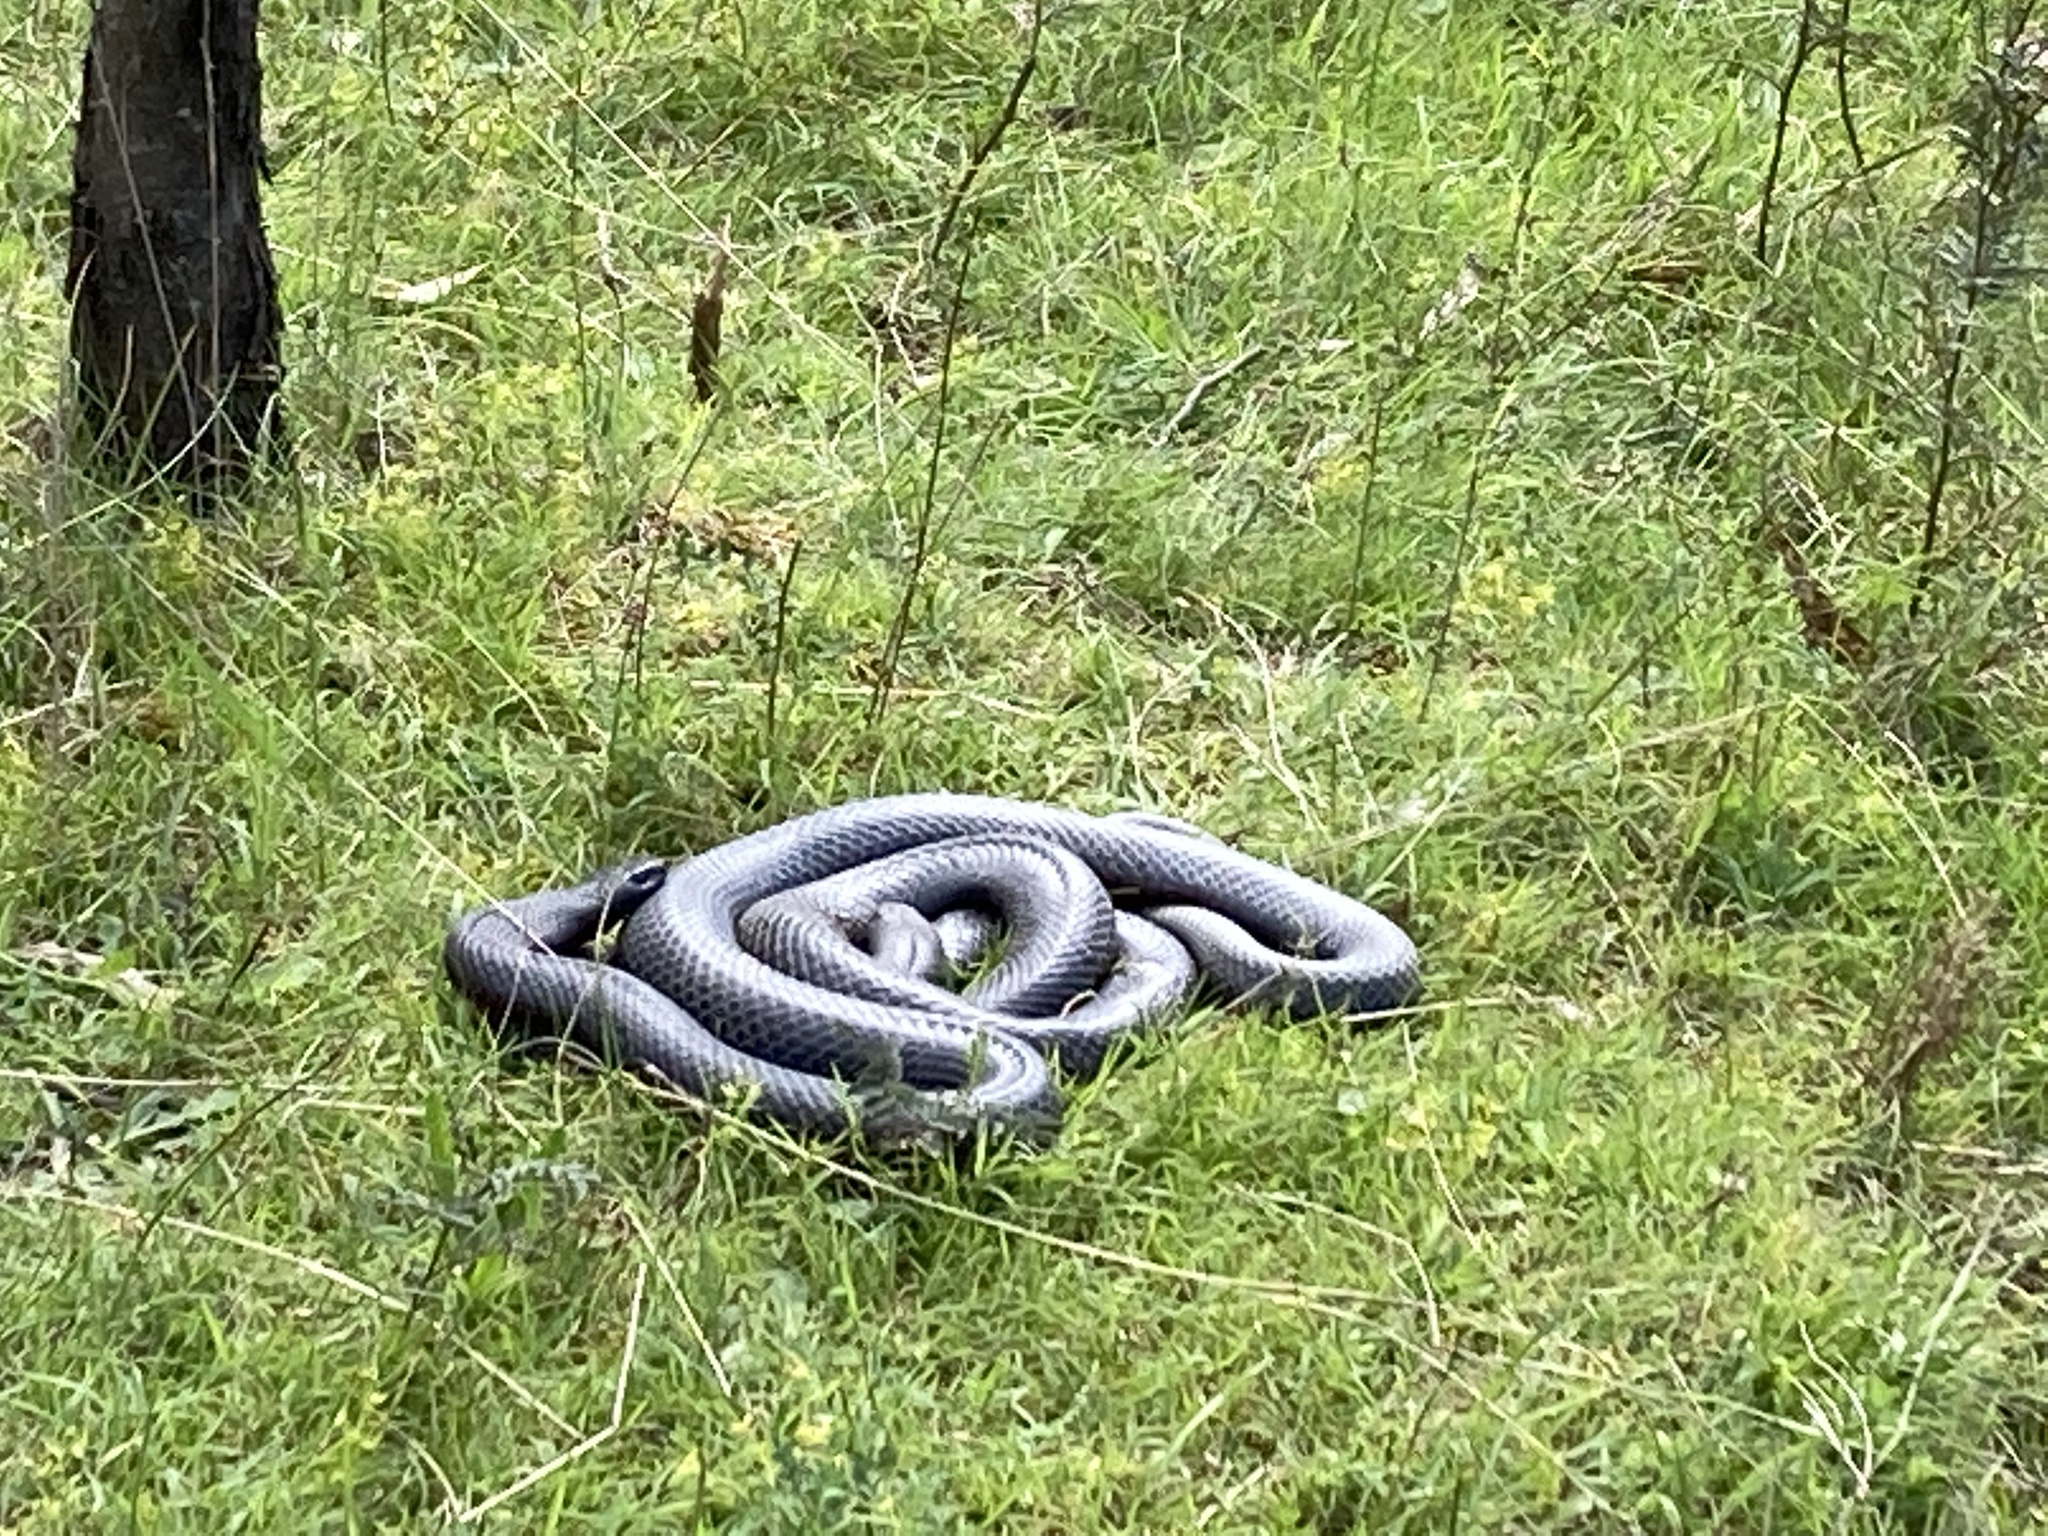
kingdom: Animalia
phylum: Chordata
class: Squamata
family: Elapidae
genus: Pseudechis
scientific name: Pseudechis porphyriacus
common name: Australian black snake
